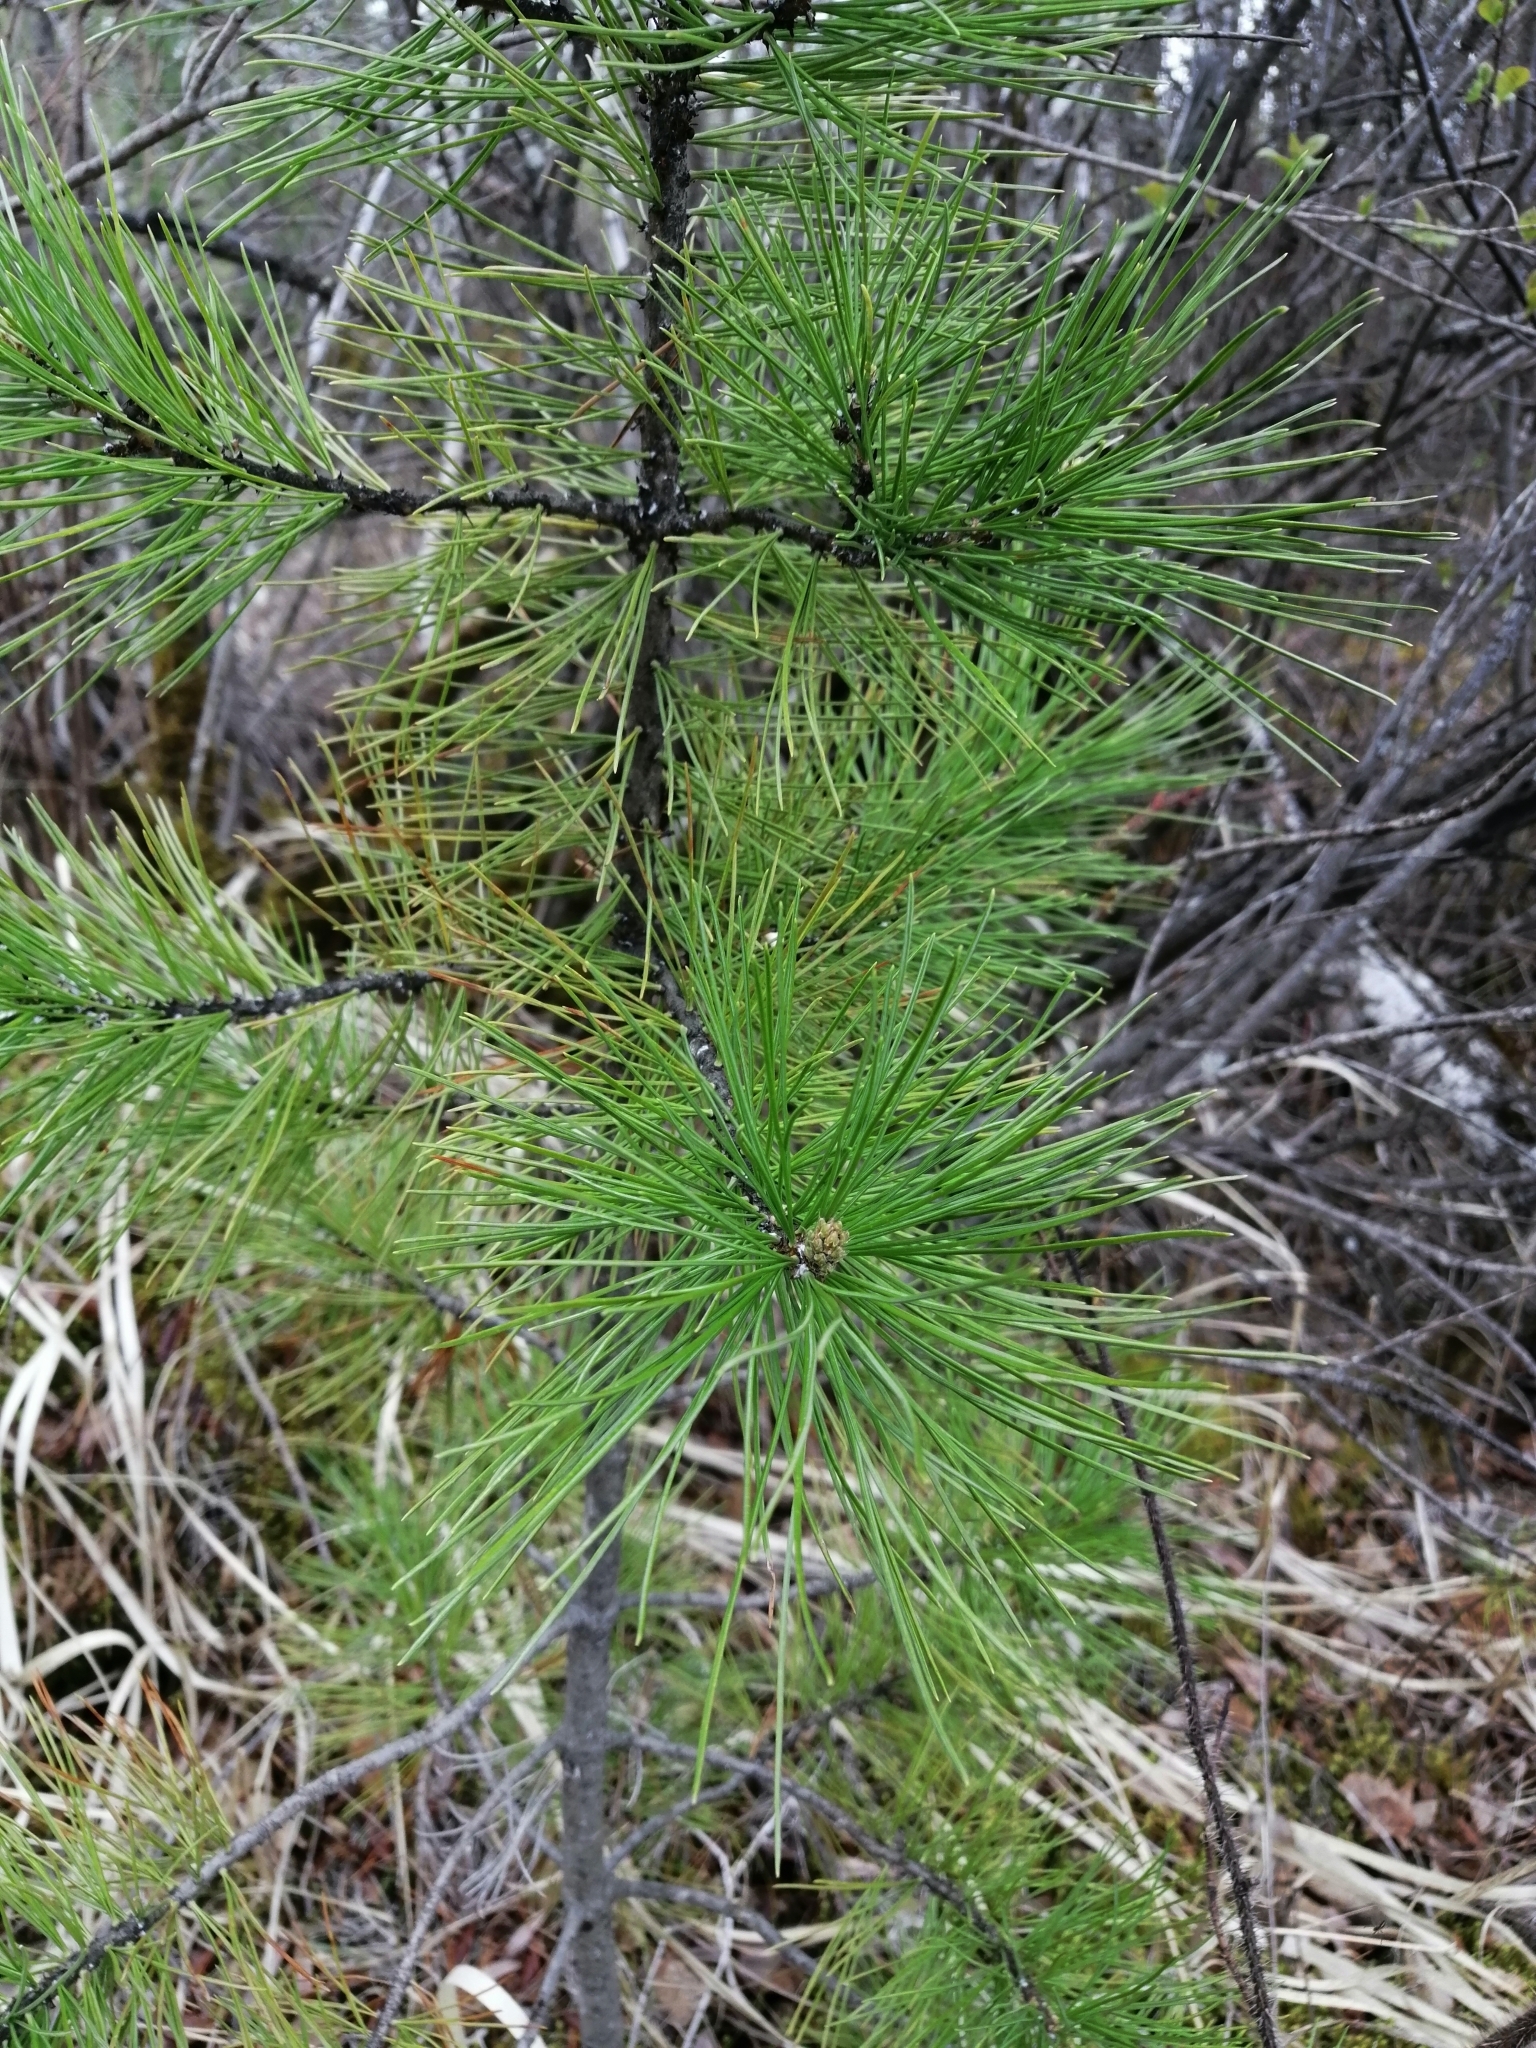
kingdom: Plantae
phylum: Tracheophyta
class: Pinopsida
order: Pinales
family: Pinaceae
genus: Pinus
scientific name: Pinus sibirica
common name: Siberian pine
